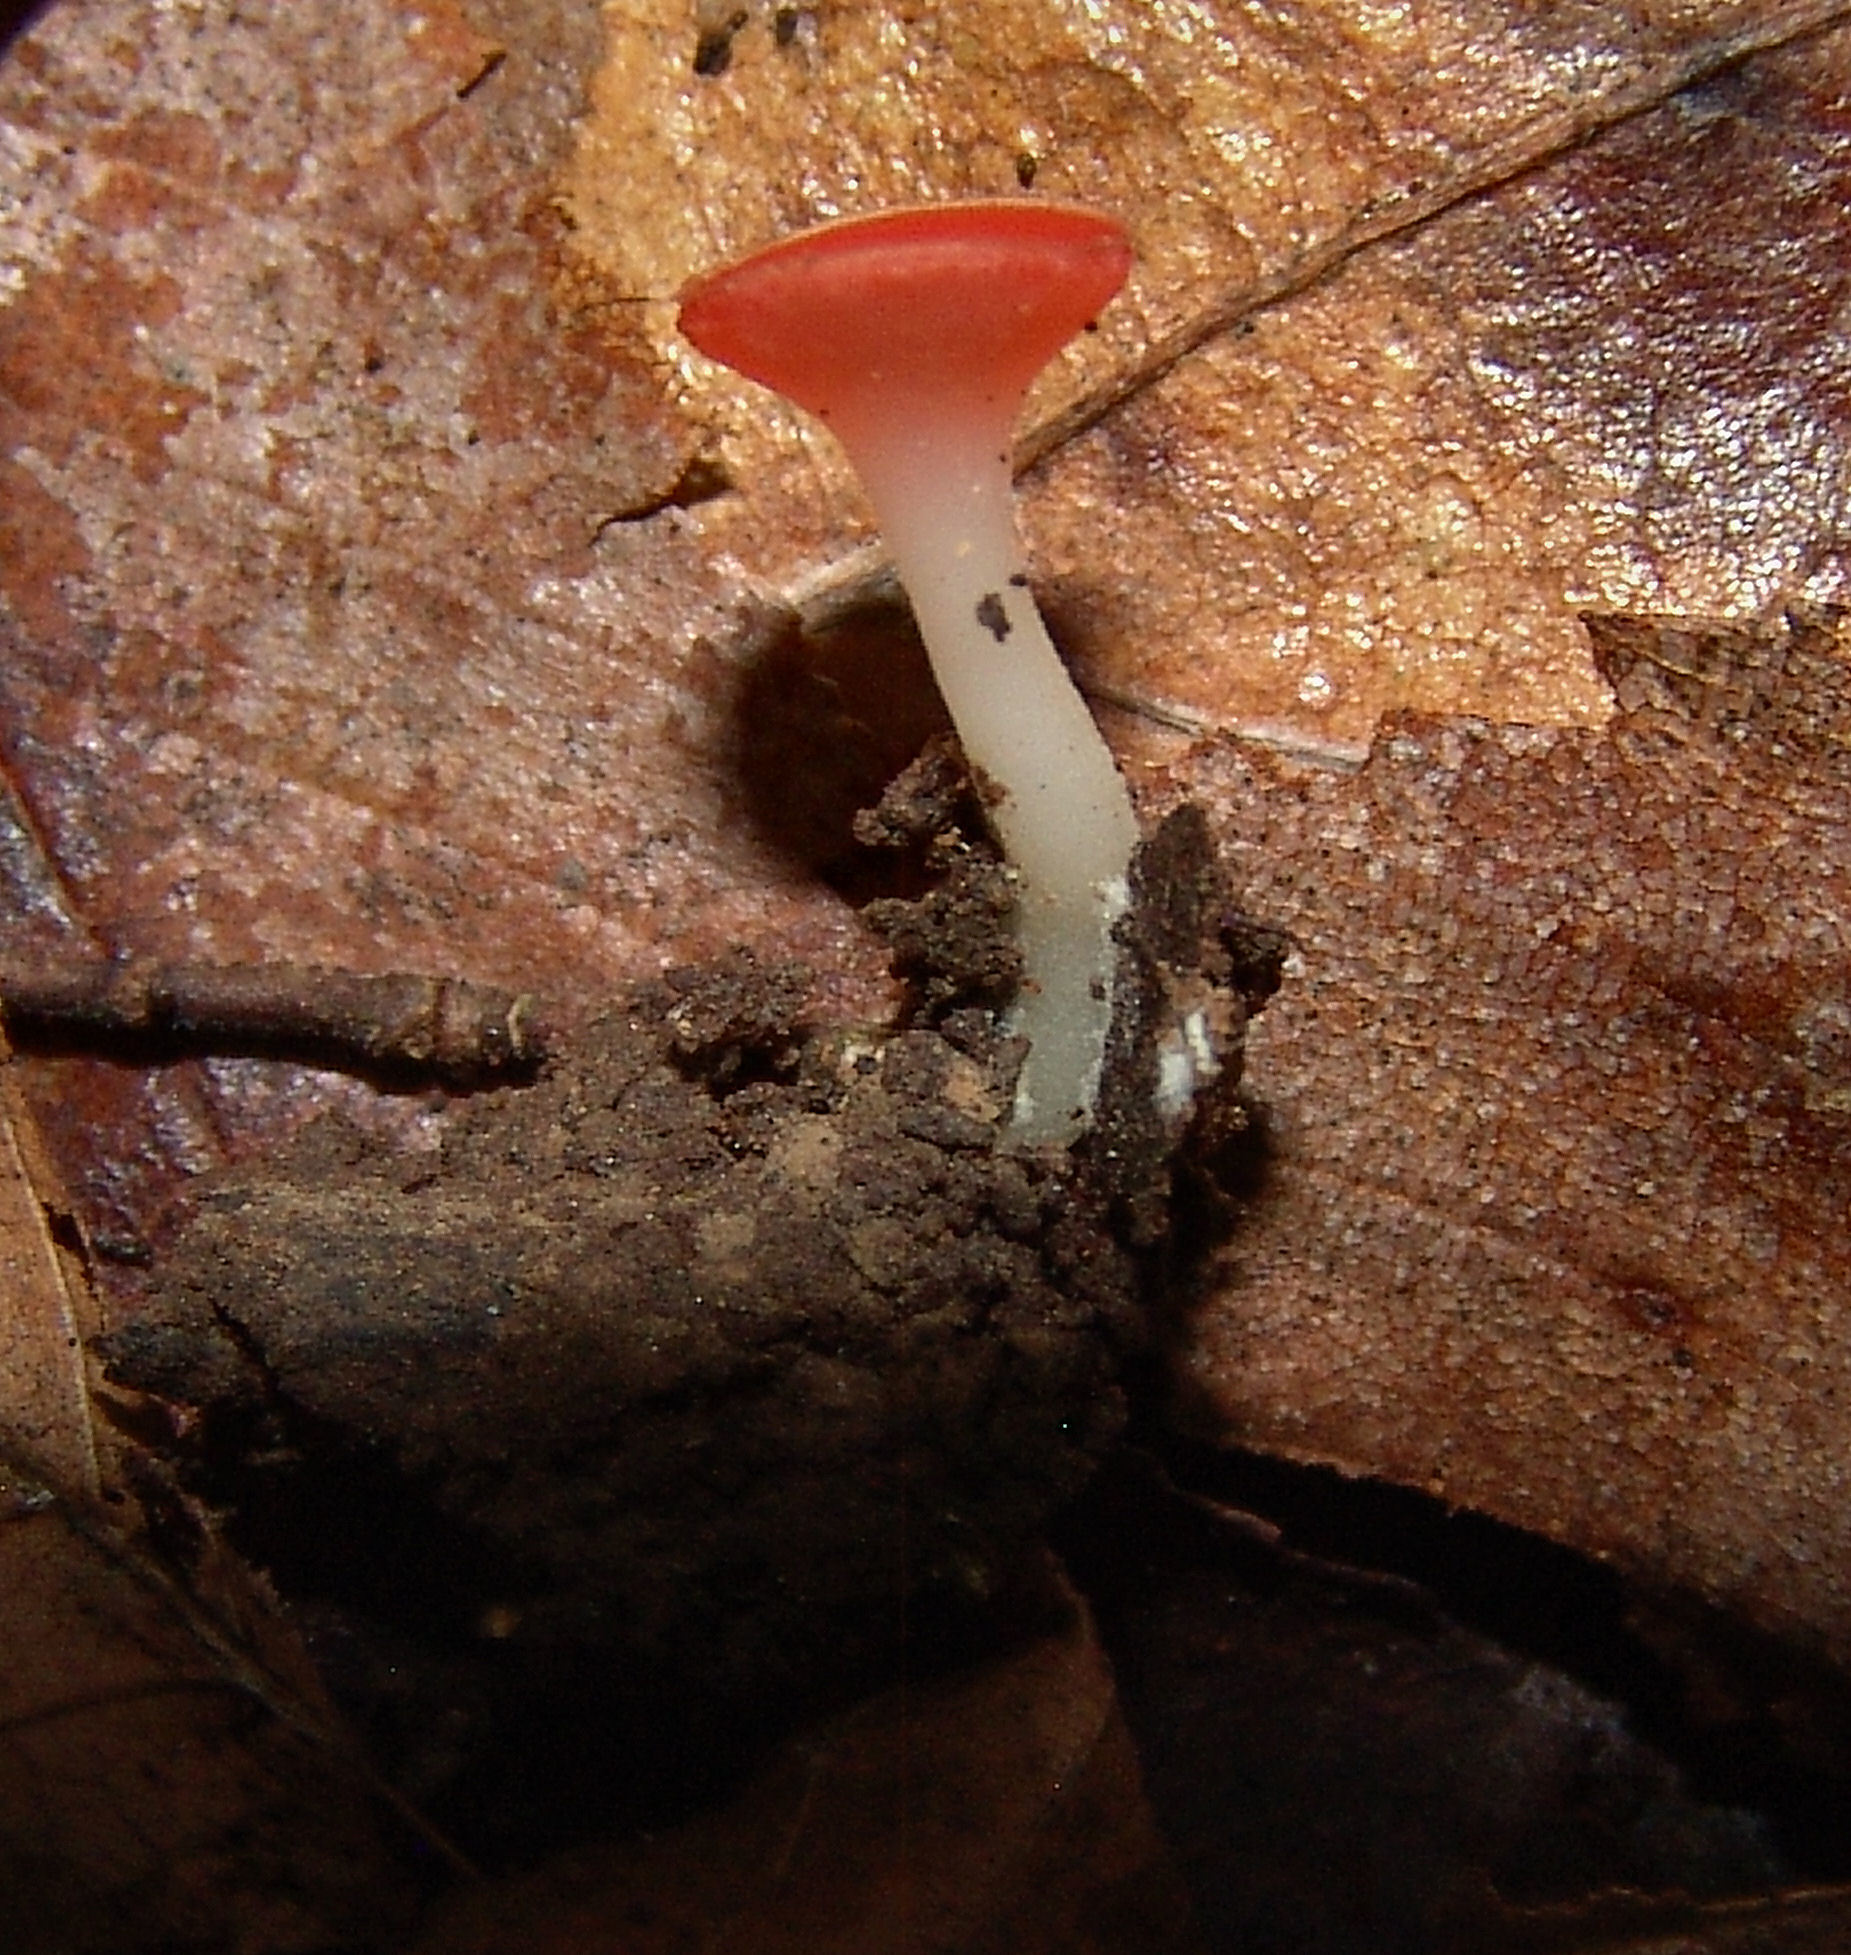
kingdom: Fungi
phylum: Ascomycota
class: Pezizomycetes
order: Pezizales
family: Sarcoscyphaceae
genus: Sarcoscypha
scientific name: Sarcoscypha occidentalis
